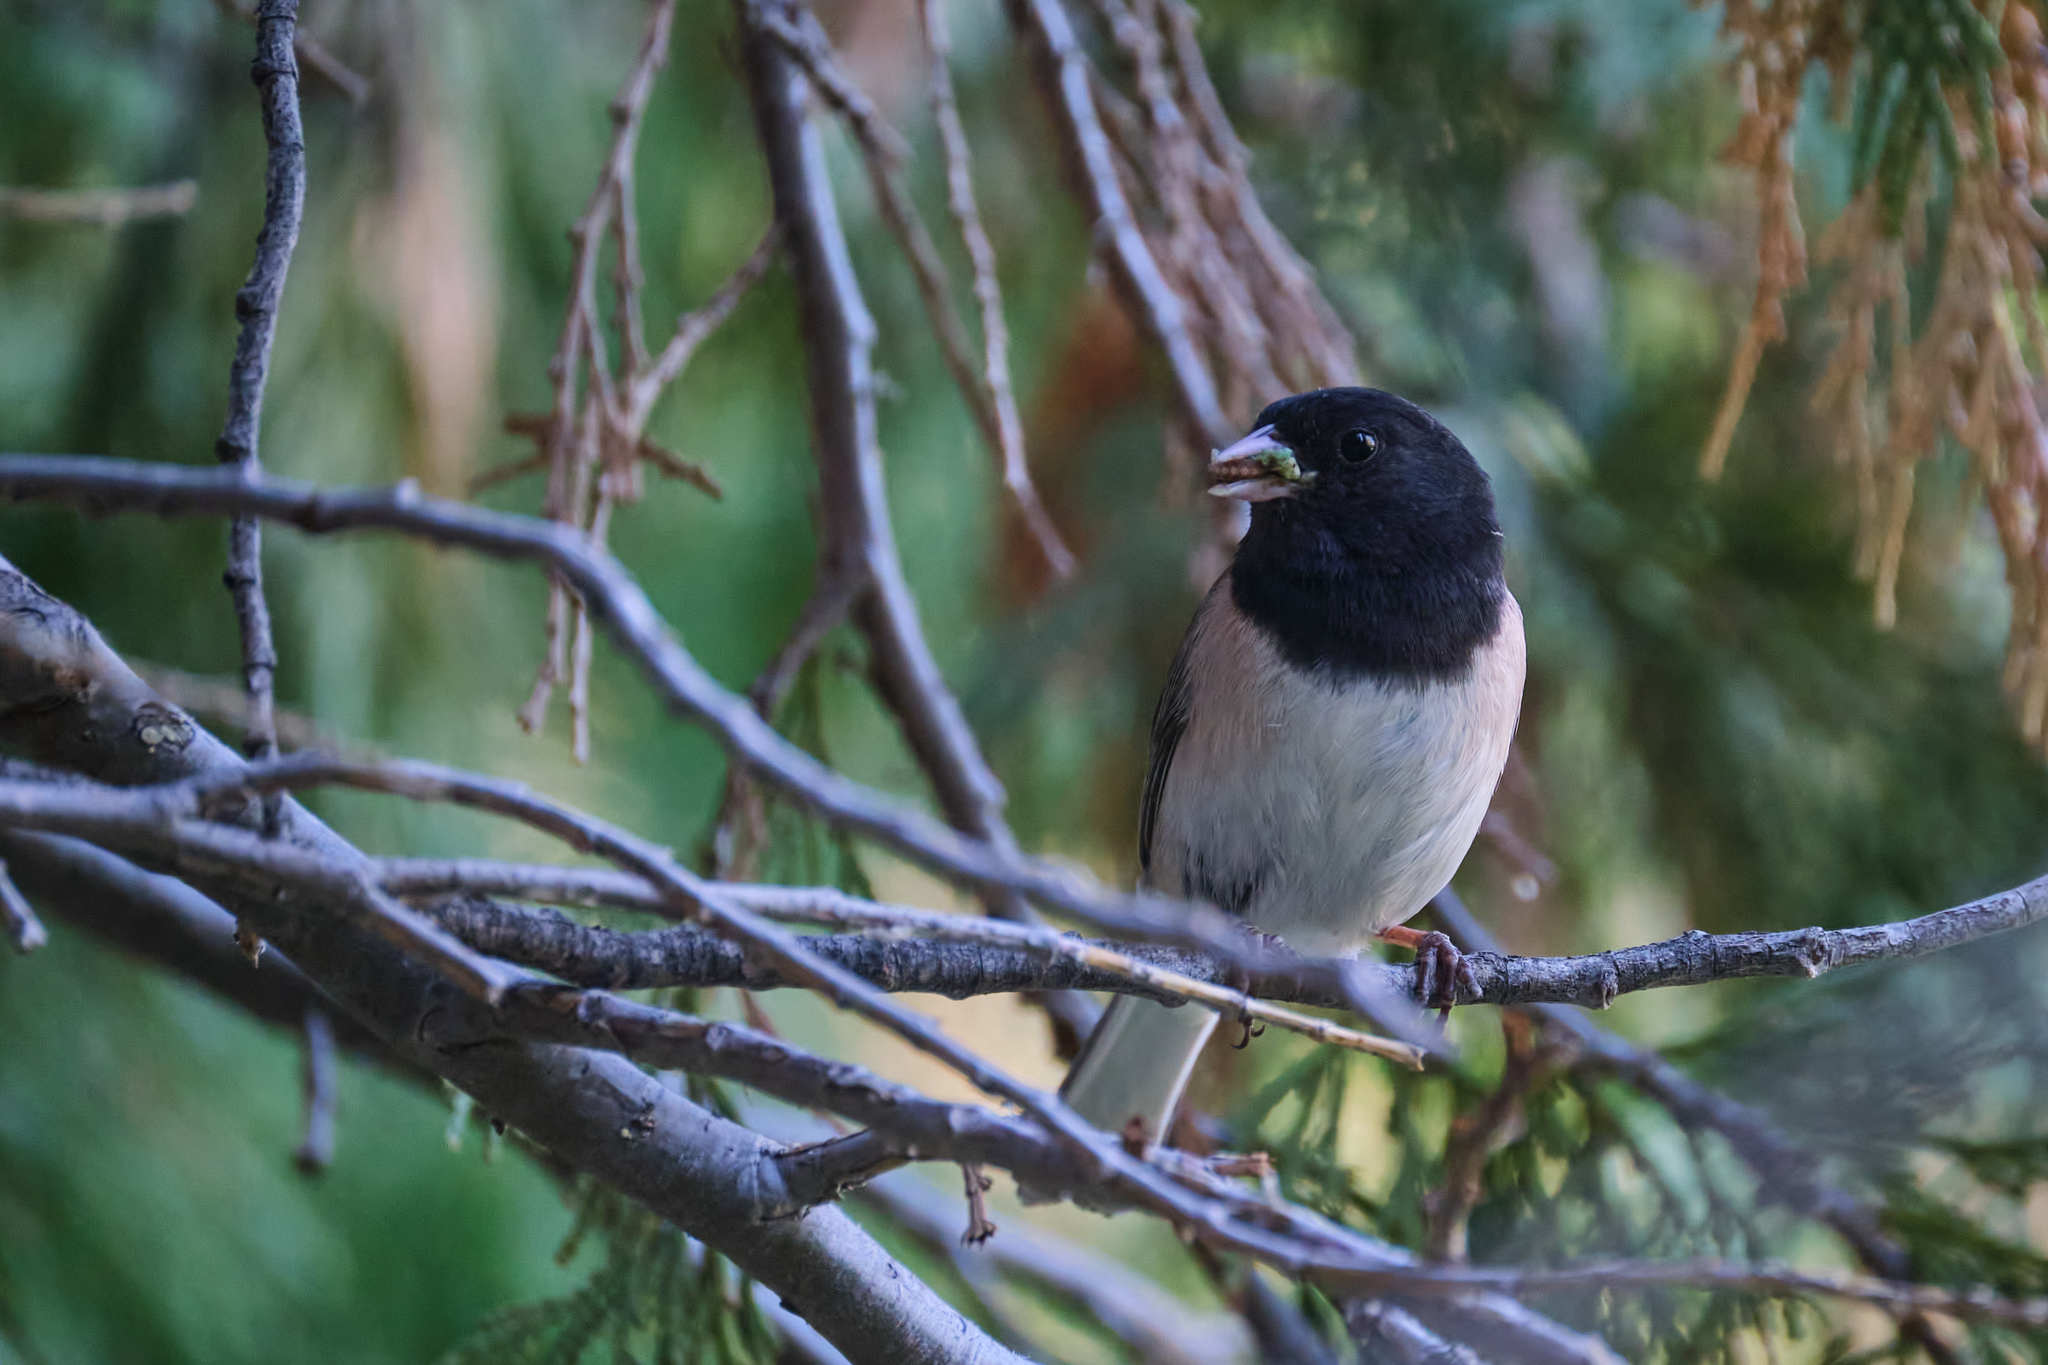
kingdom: Animalia
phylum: Chordata
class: Aves
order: Passeriformes
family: Passerellidae
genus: Junco
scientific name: Junco hyemalis
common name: Dark-eyed junco
